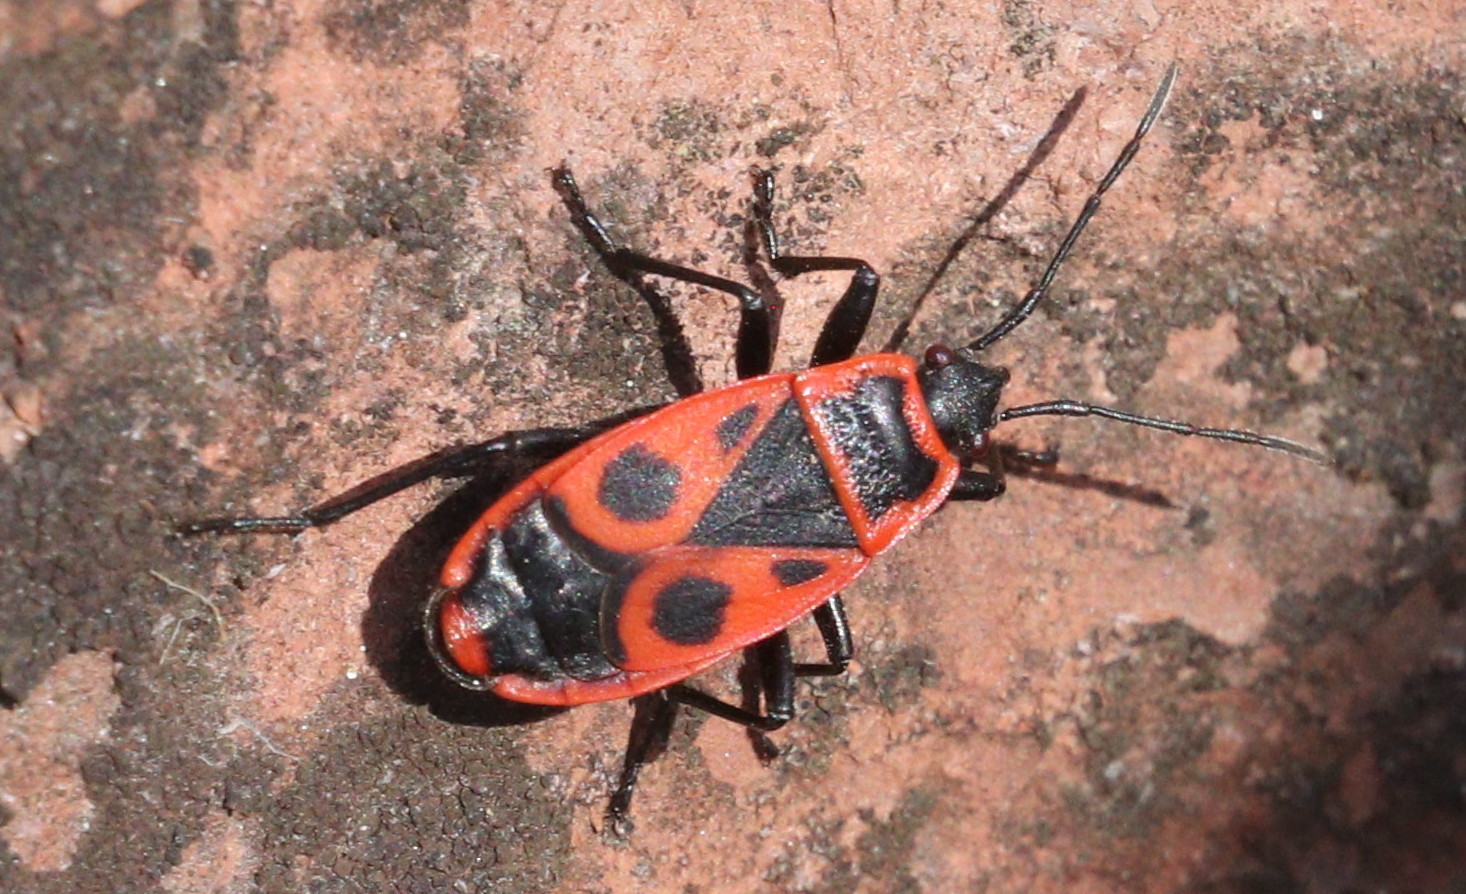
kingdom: Animalia
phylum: Arthropoda
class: Insecta
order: Hemiptera
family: Pyrrhocoridae
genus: Pyrrhocoris
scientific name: Pyrrhocoris apterus
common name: Firebug
